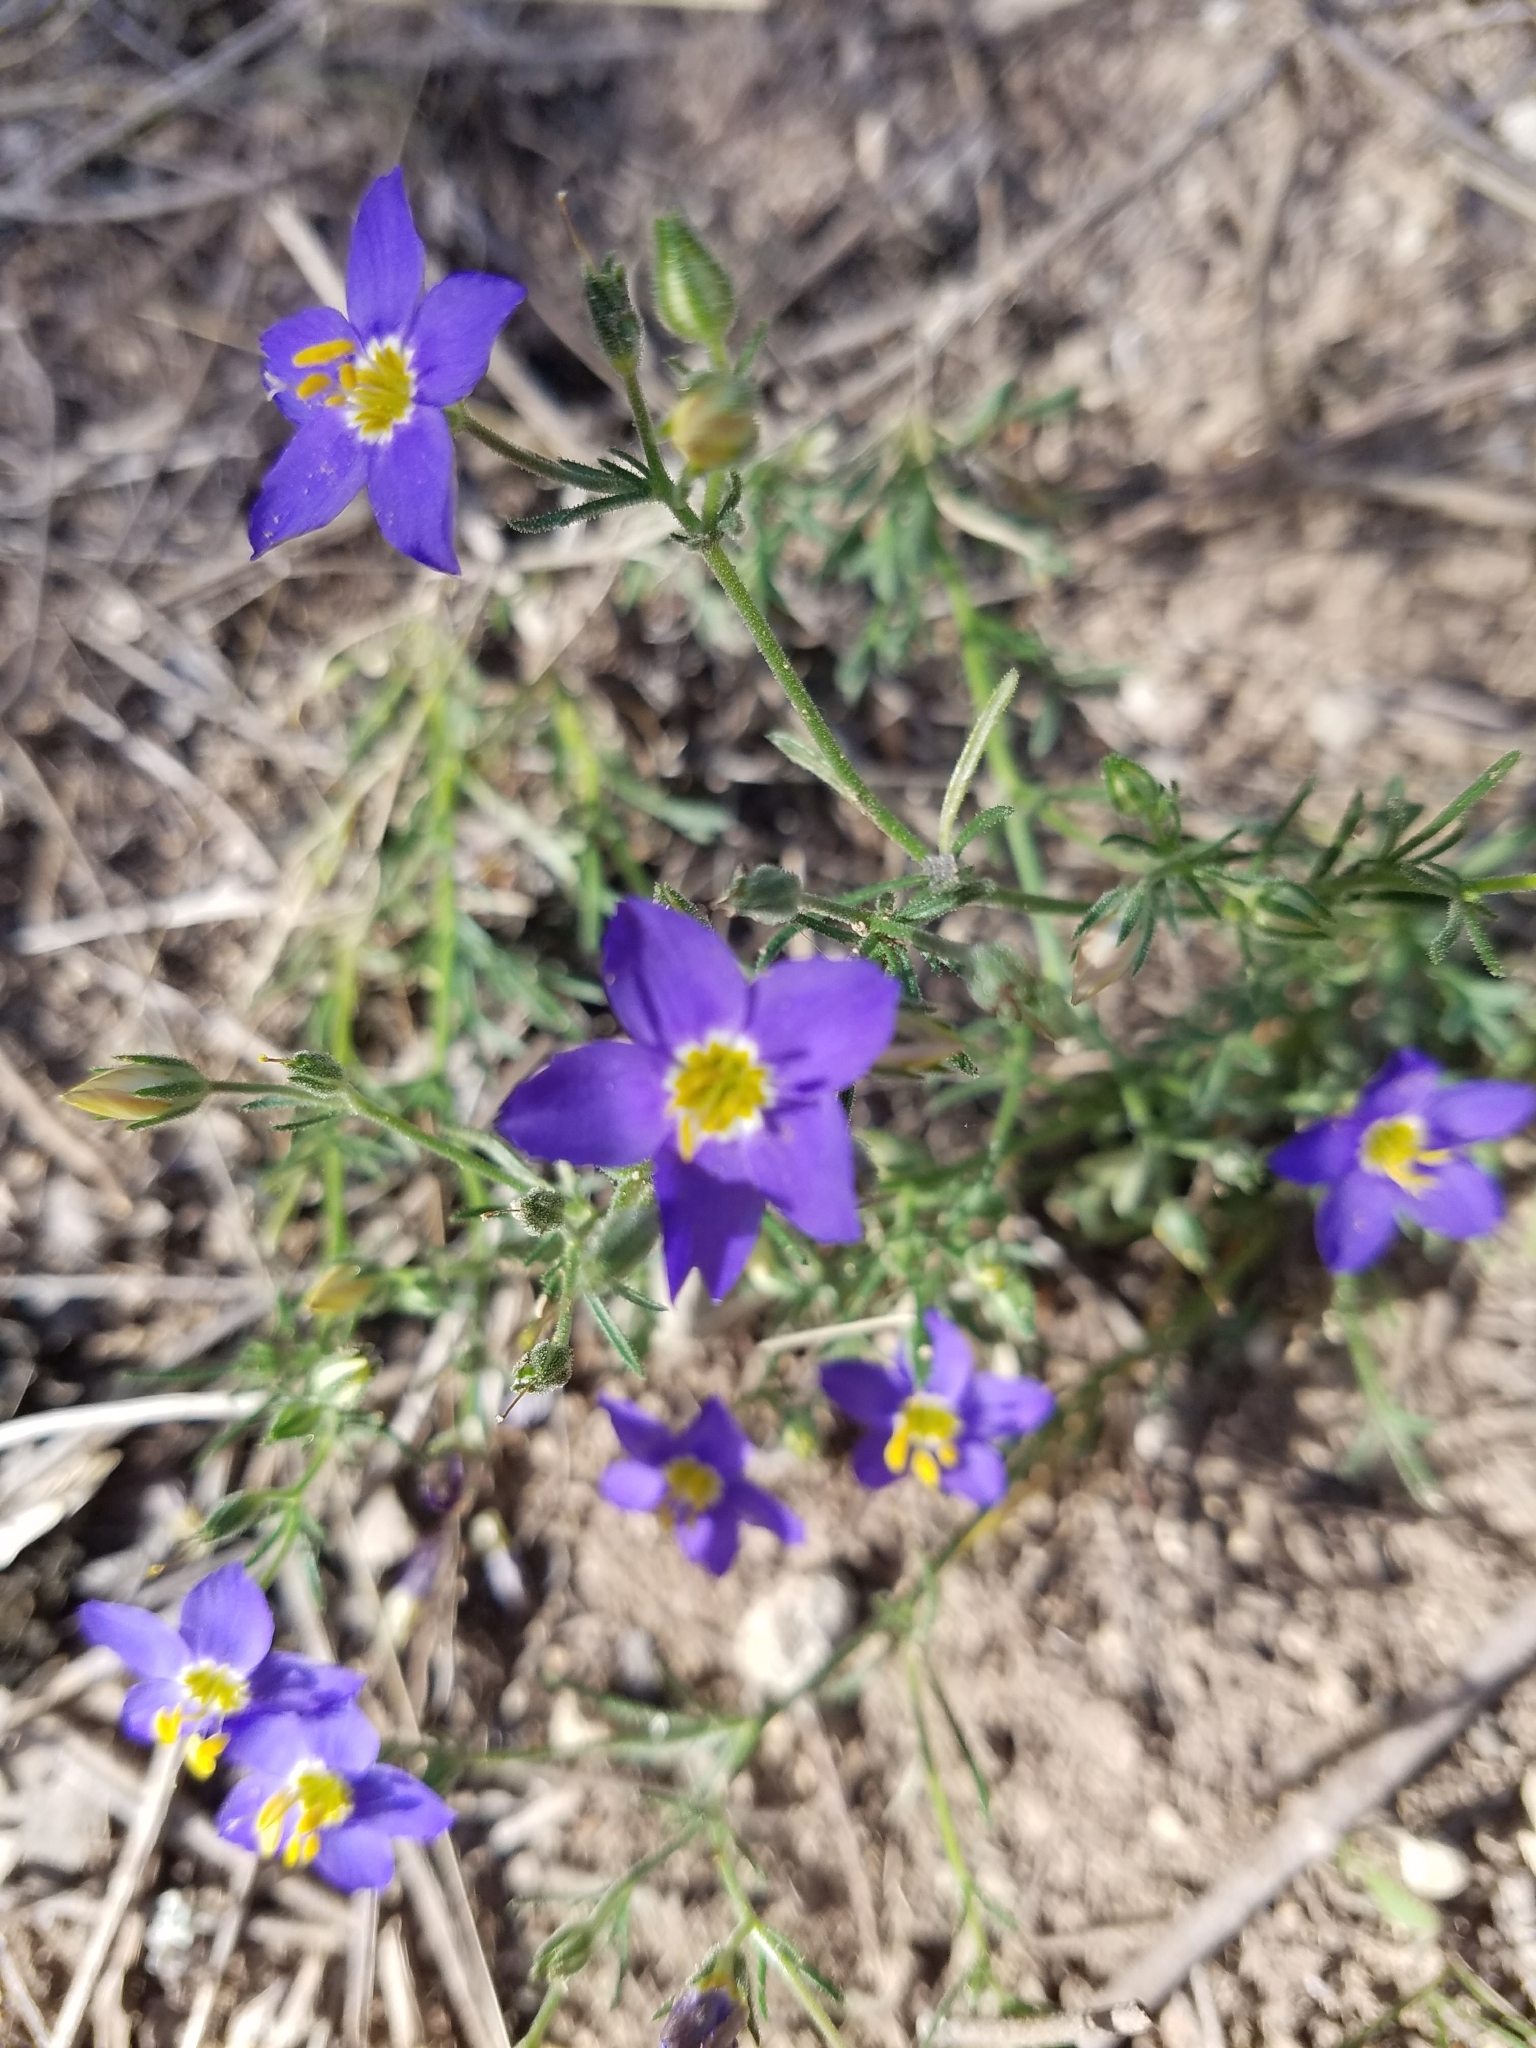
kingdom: Plantae
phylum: Tracheophyta
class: Magnoliopsida
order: Ericales
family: Polemoniaceae
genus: Giliastrum
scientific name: Giliastrum rigidulum
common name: Bluebowls
